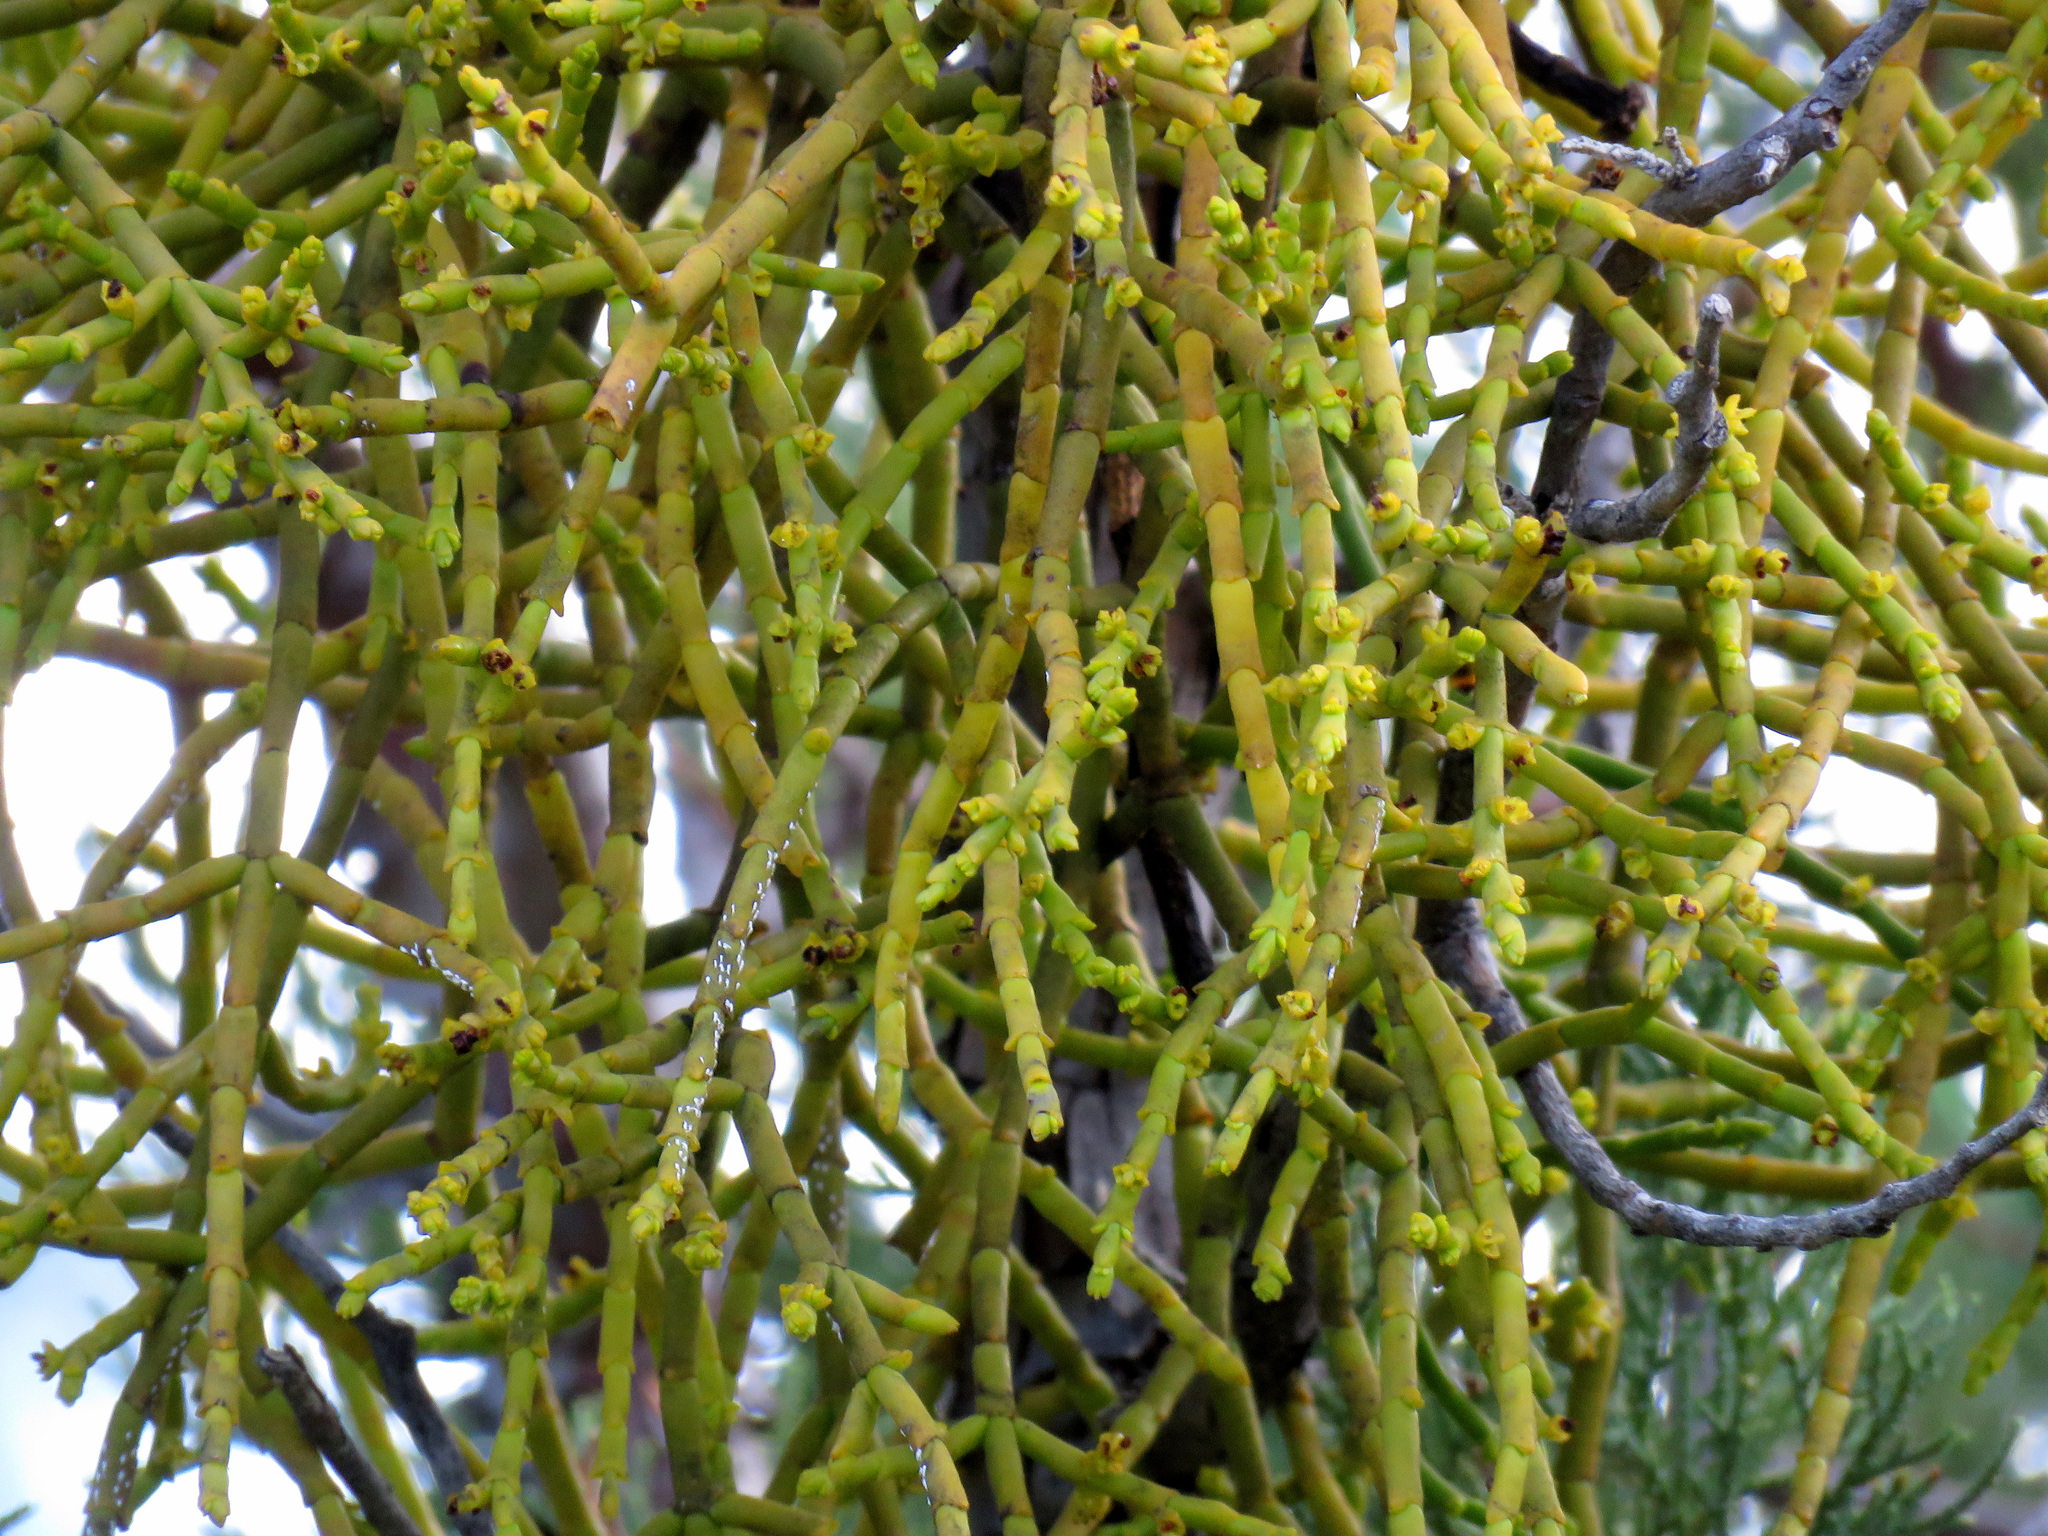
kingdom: Plantae
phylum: Tracheophyta
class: Magnoliopsida
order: Santalales
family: Viscaceae
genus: Phoradendron
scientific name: Phoradendron juniperinum
